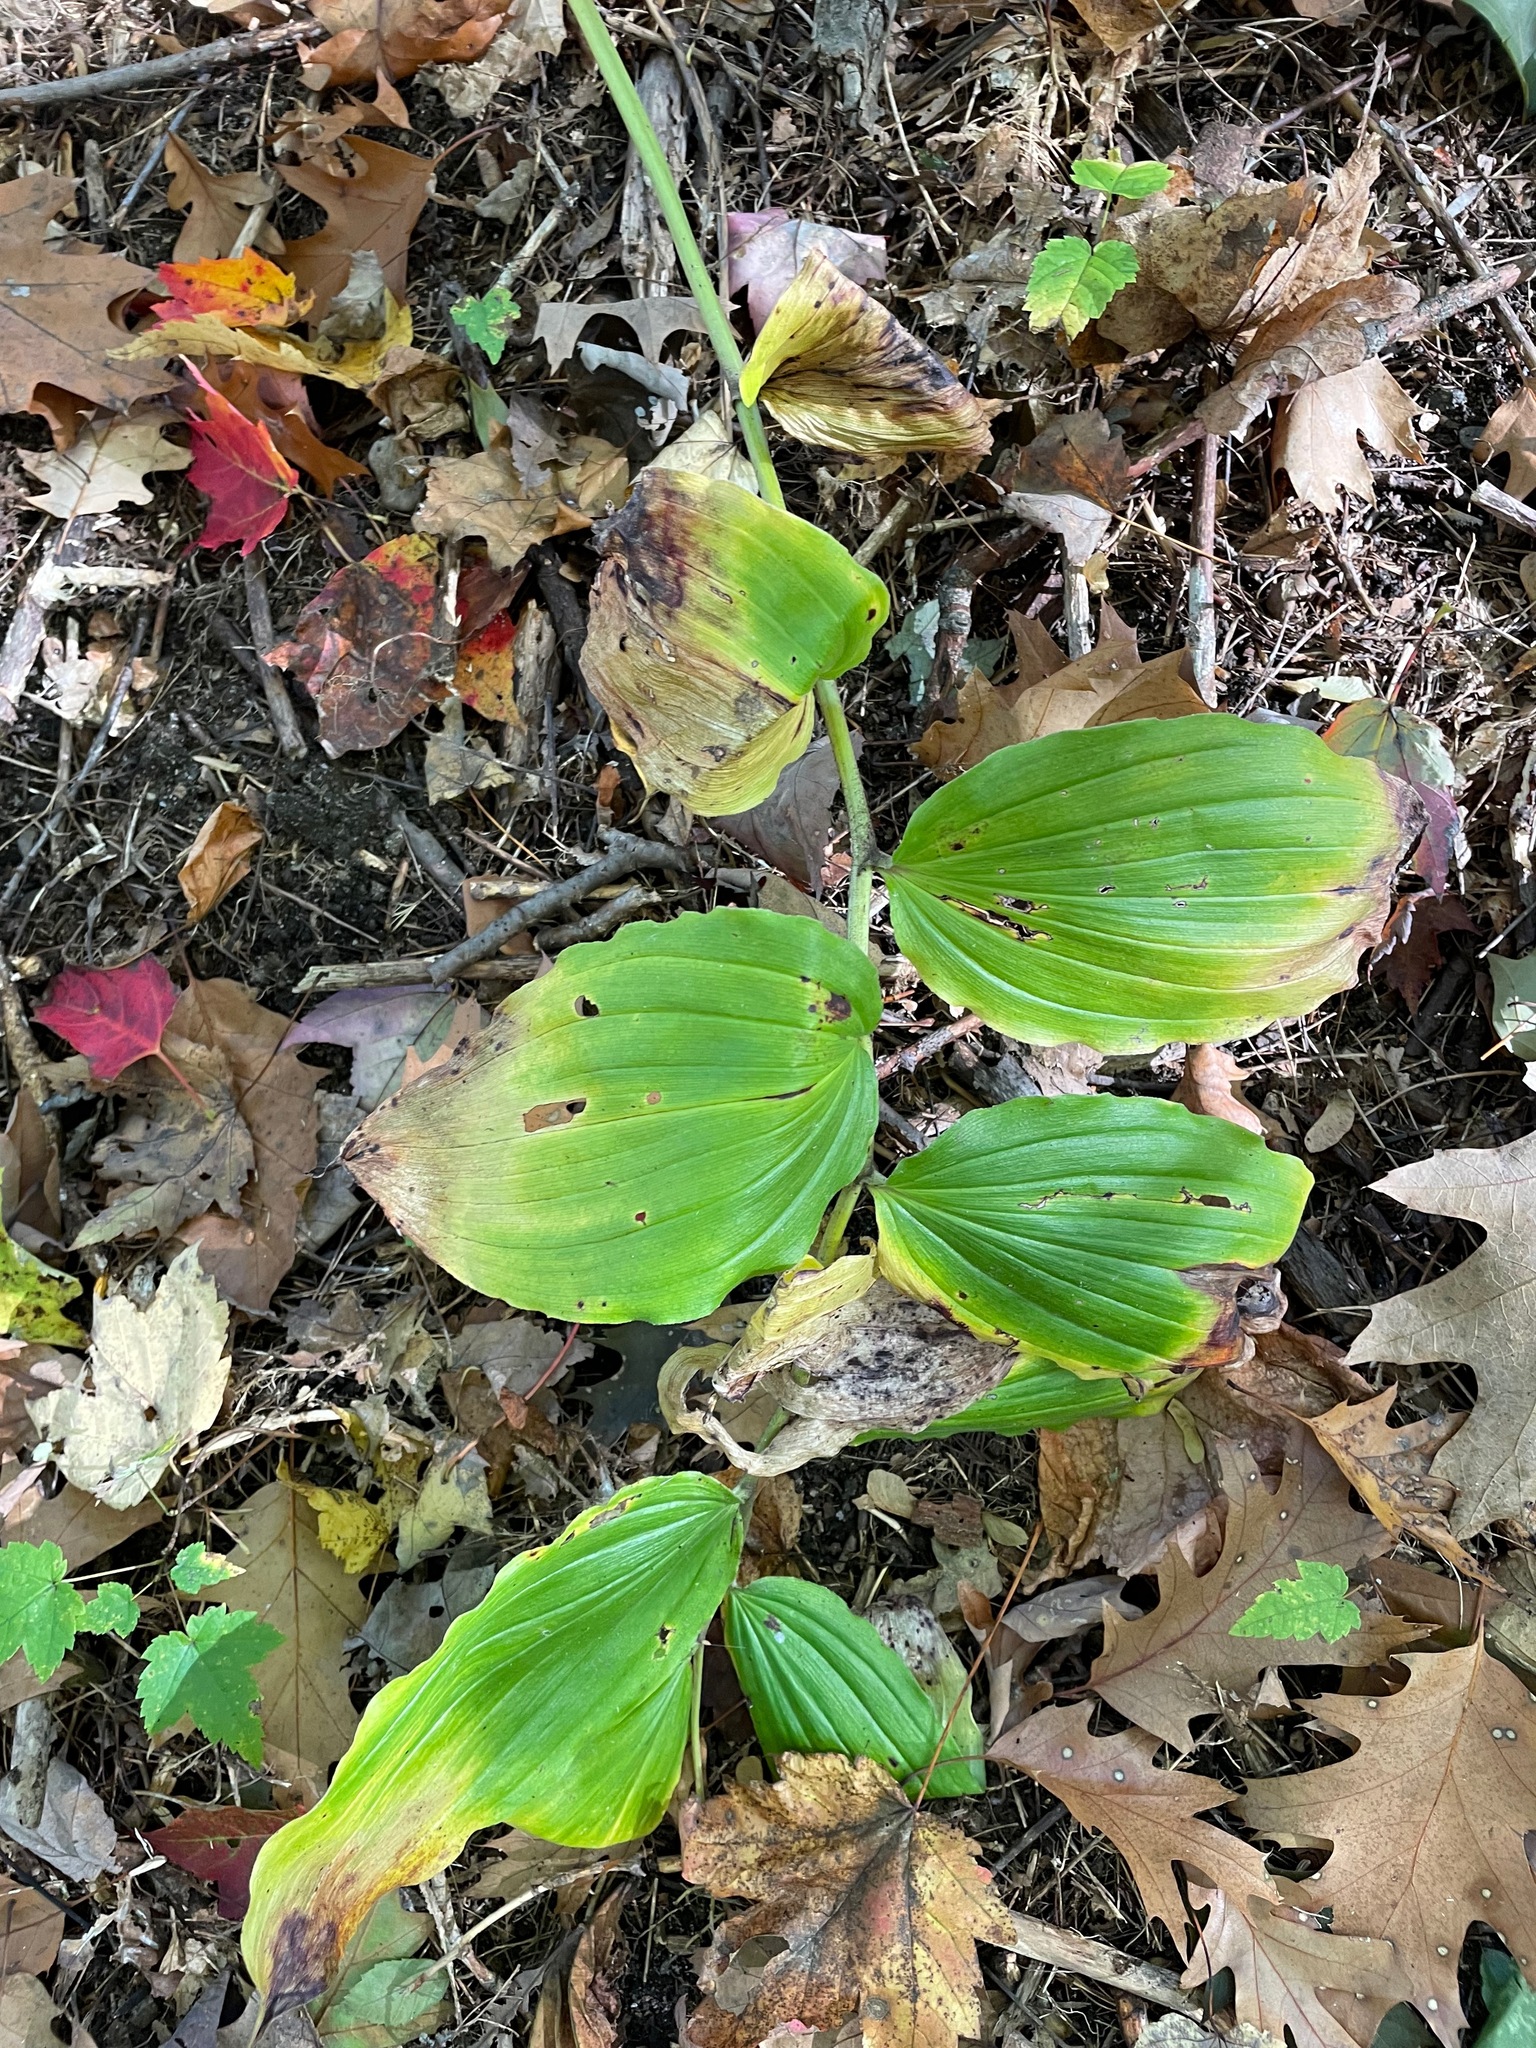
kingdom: Plantae
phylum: Tracheophyta
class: Liliopsida
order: Asparagales
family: Asparagaceae
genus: Maianthemum
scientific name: Maianthemum racemosum
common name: False spikenard
